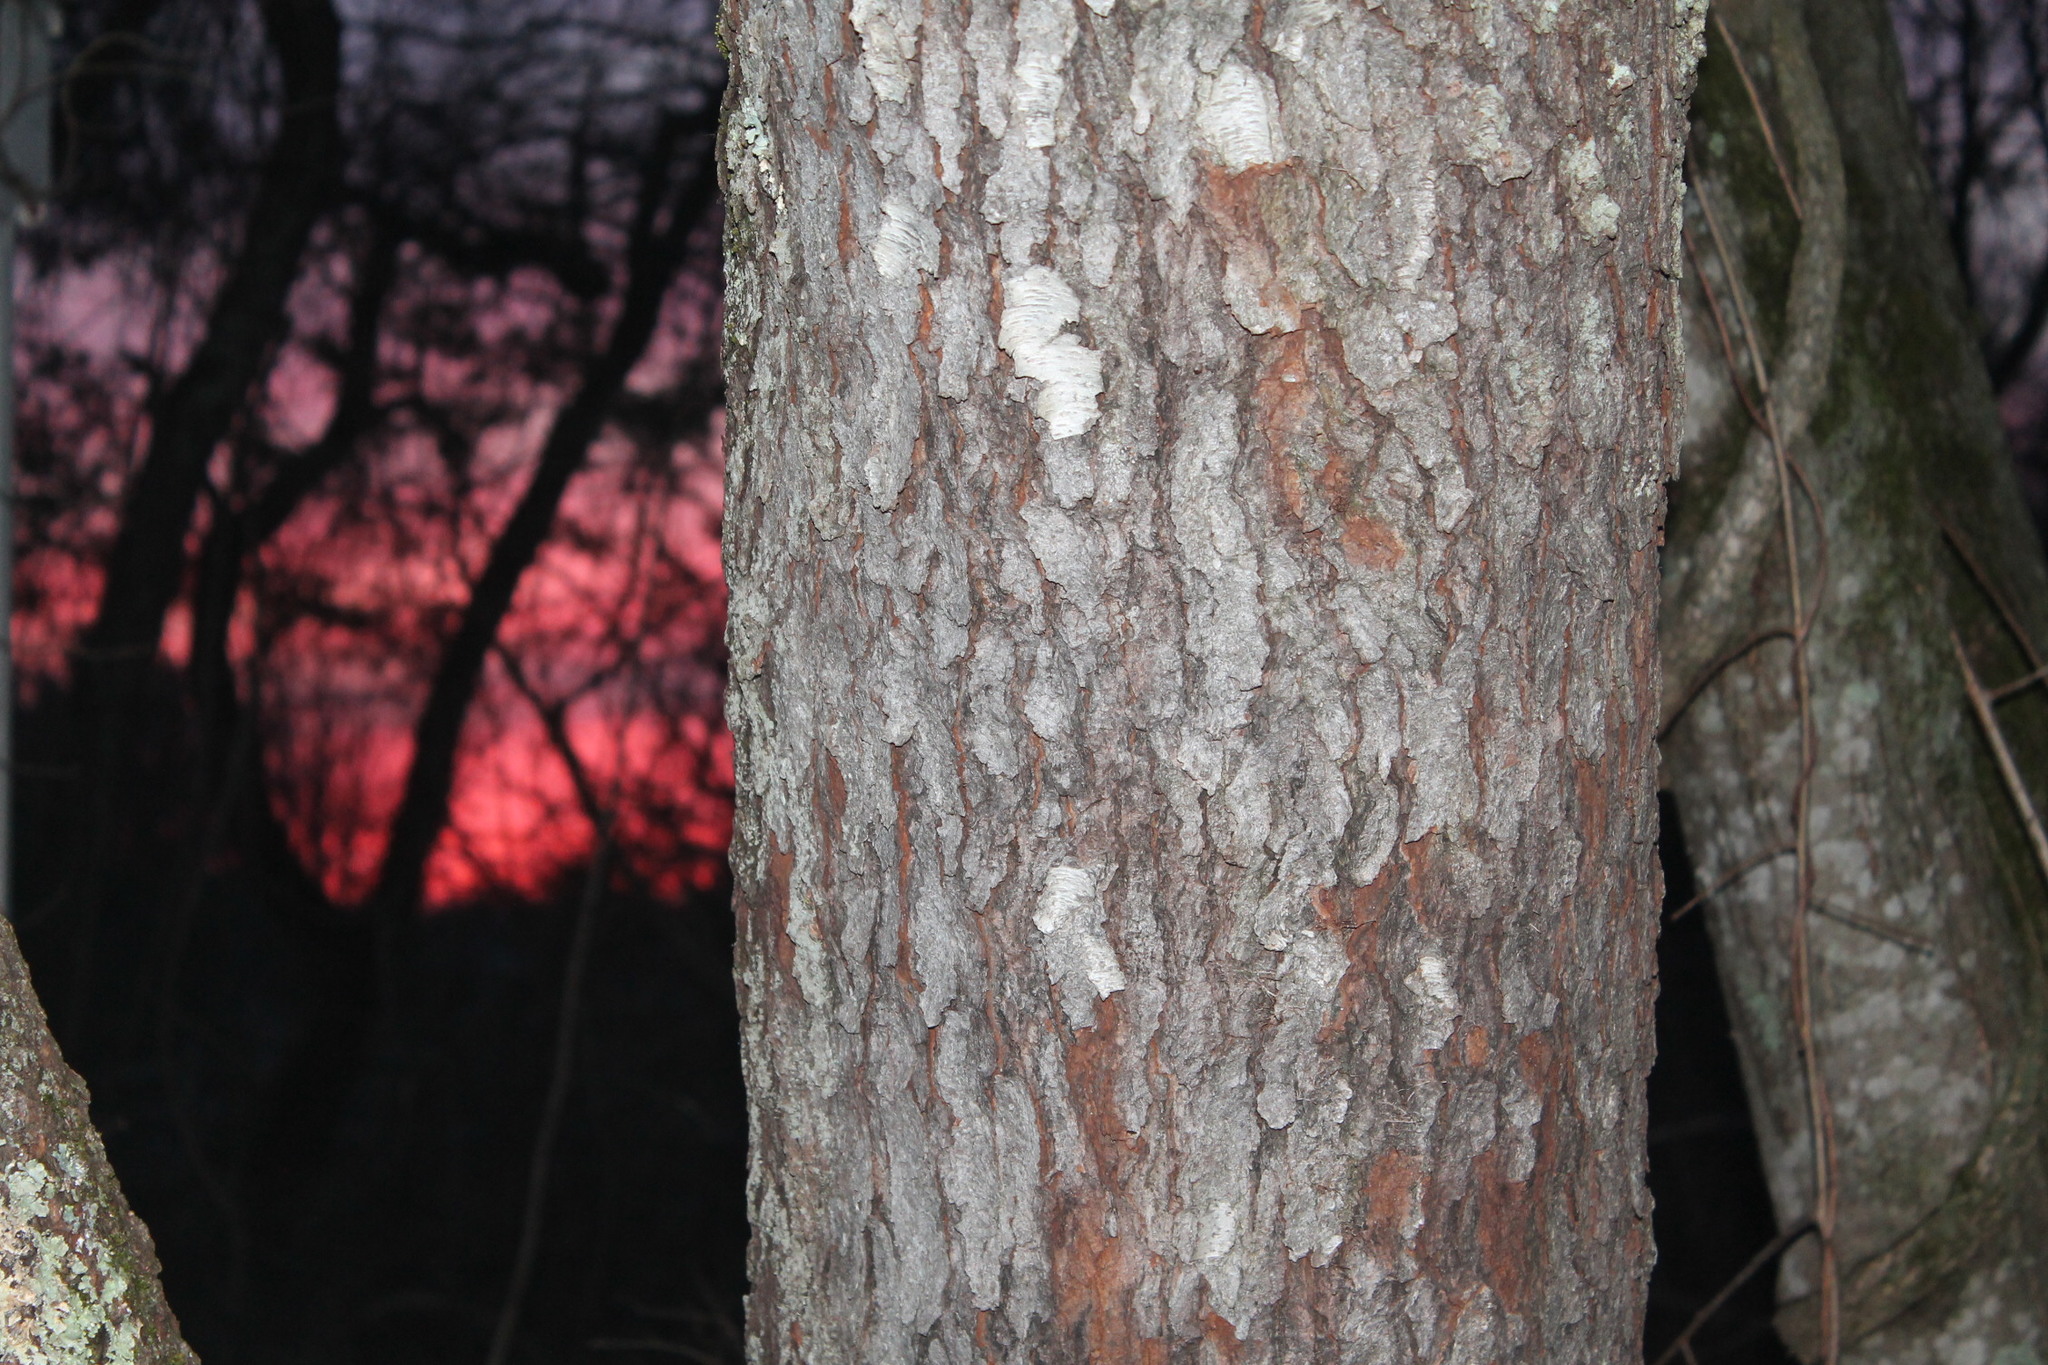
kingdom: Plantae
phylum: Tracheophyta
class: Magnoliopsida
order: Rosales
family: Rosaceae
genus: Prunus
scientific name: Prunus serotina
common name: Black cherry
